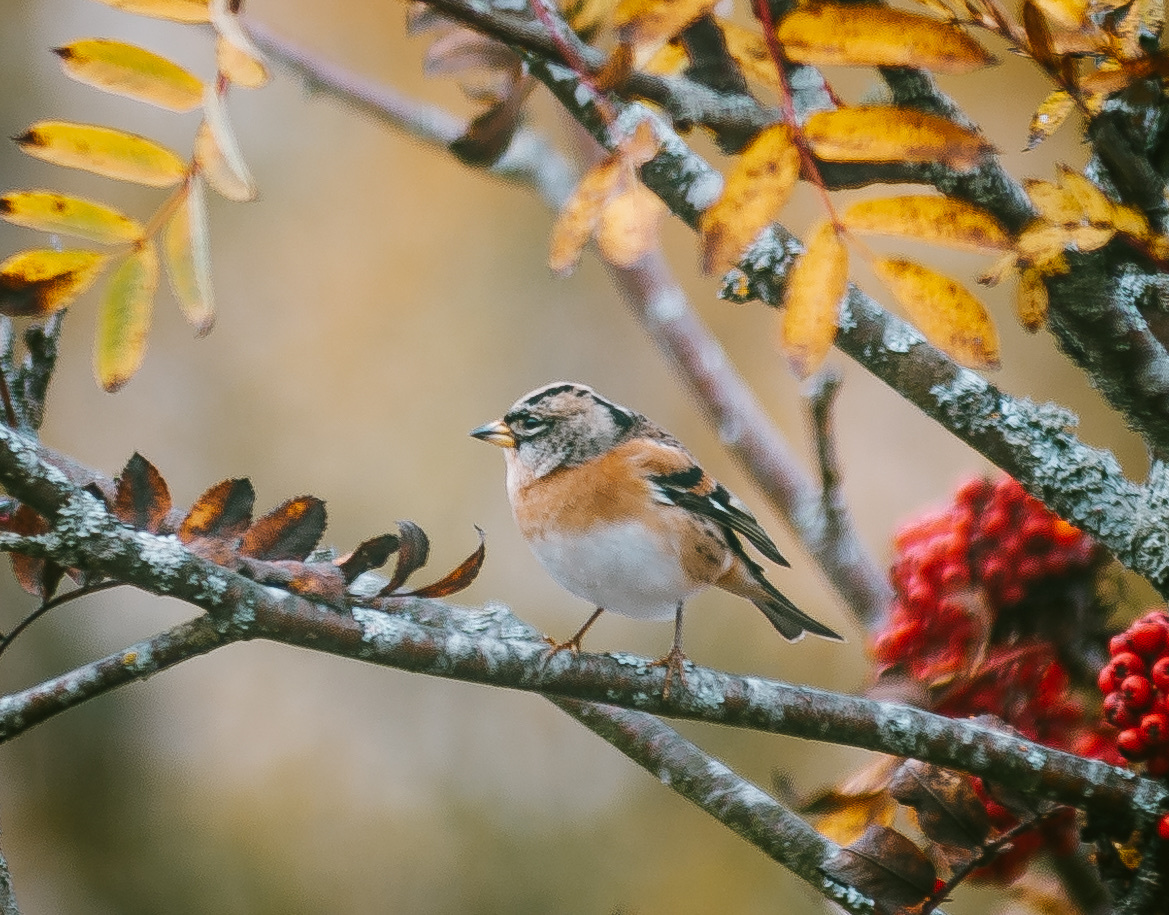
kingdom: Animalia
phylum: Chordata
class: Aves
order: Passeriformes
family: Fringillidae
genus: Fringilla
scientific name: Fringilla montifringilla
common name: Brambling
